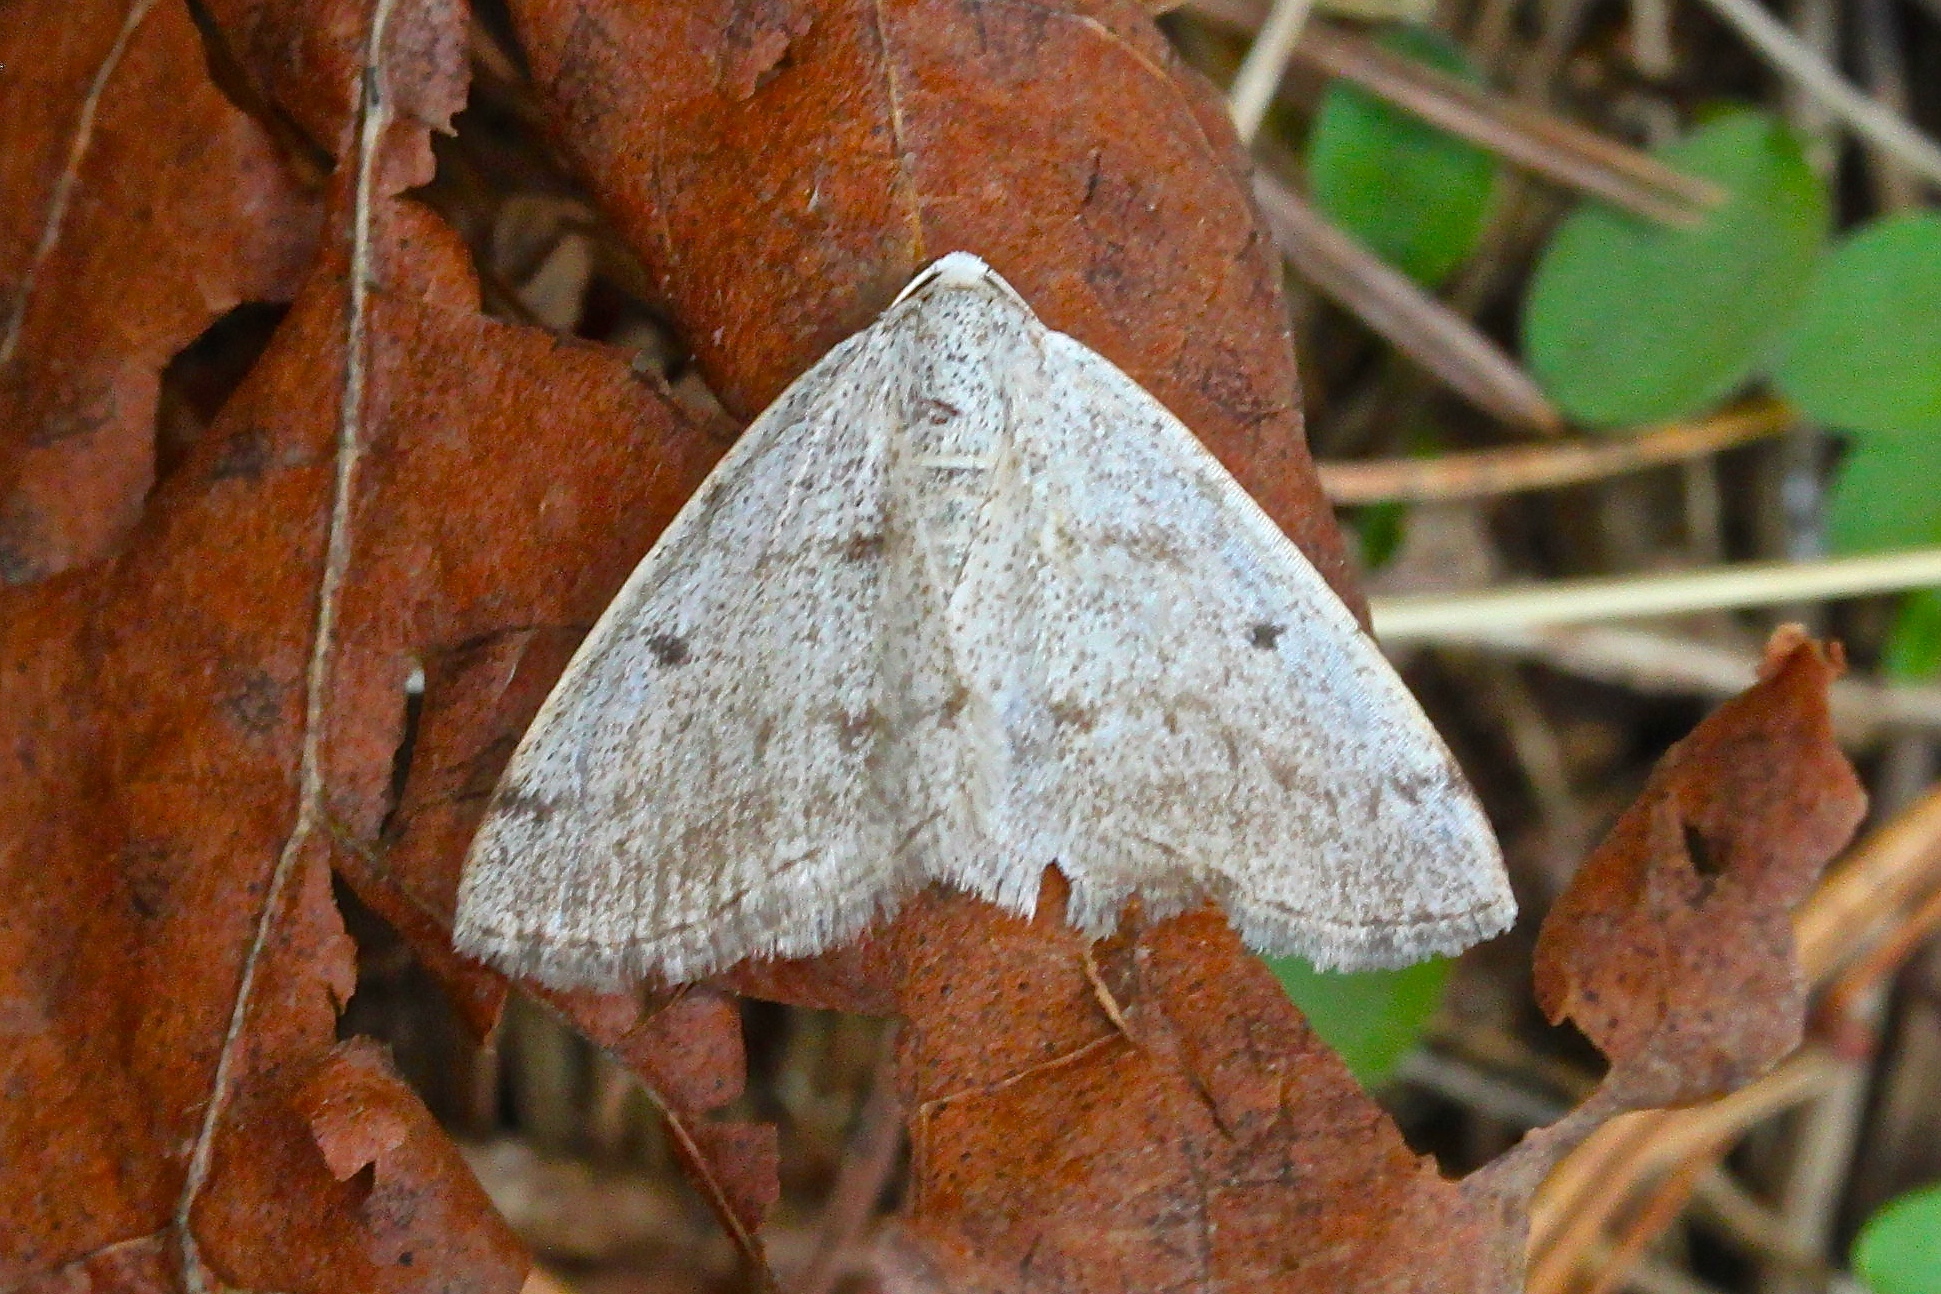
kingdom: Animalia
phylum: Arthropoda
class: Insecta
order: Lepidoptera
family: Geometridae
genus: Lomographa
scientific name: Lomographa glomeraria
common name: Gray spring moth
